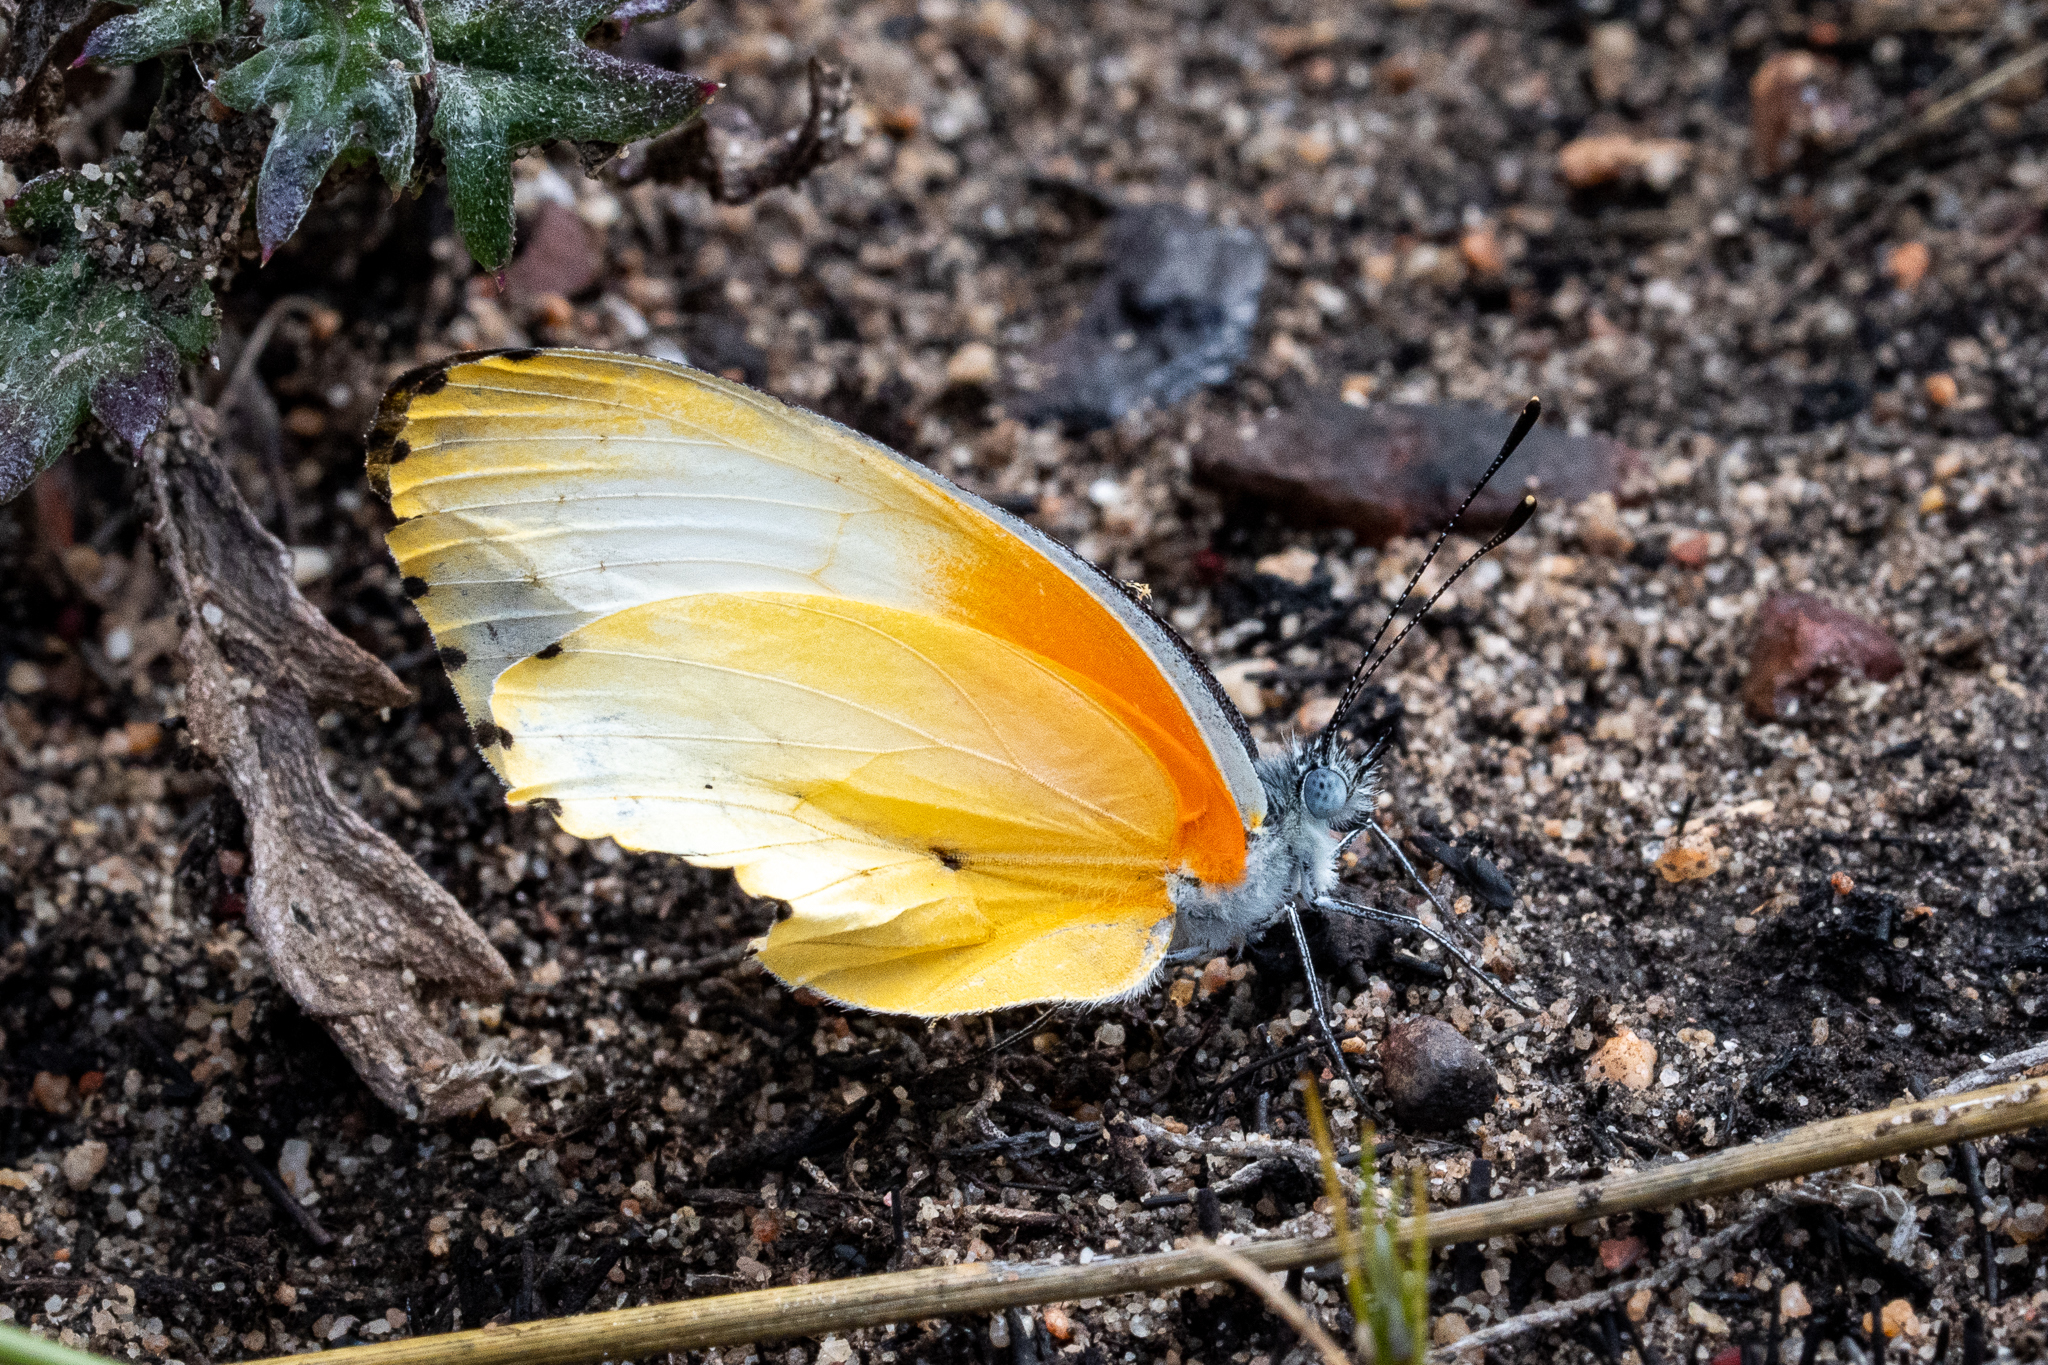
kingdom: Animalia
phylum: Arthropoda
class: Insecta
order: Lepidoptera
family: Pieridae
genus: Mylothris
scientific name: Mylothris agathina
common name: Eastern dotted border
